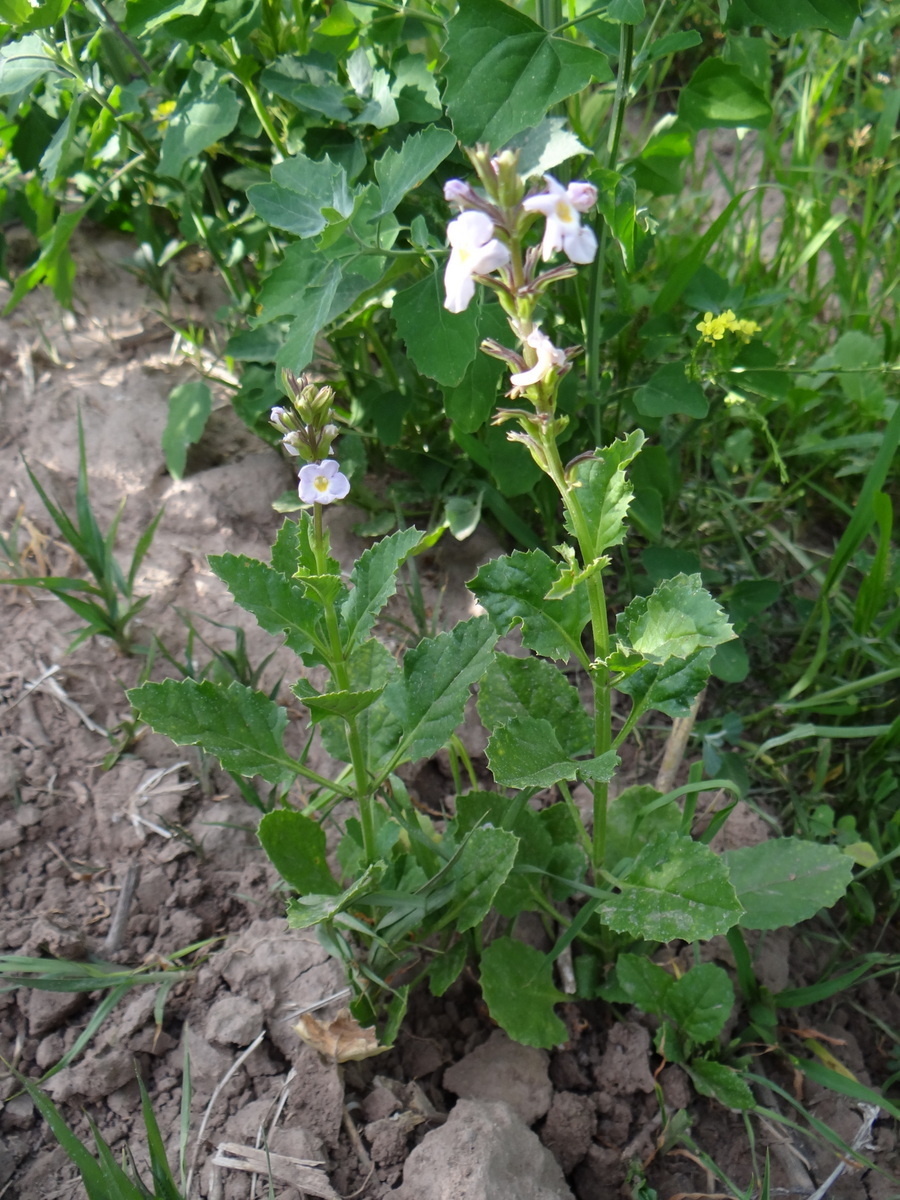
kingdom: Plantae
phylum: Tracheophyta
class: Magnoliopsida
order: Lamiales
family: Verbenaceae
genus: Pitraea
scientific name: Pitraea cuneato-ovata
